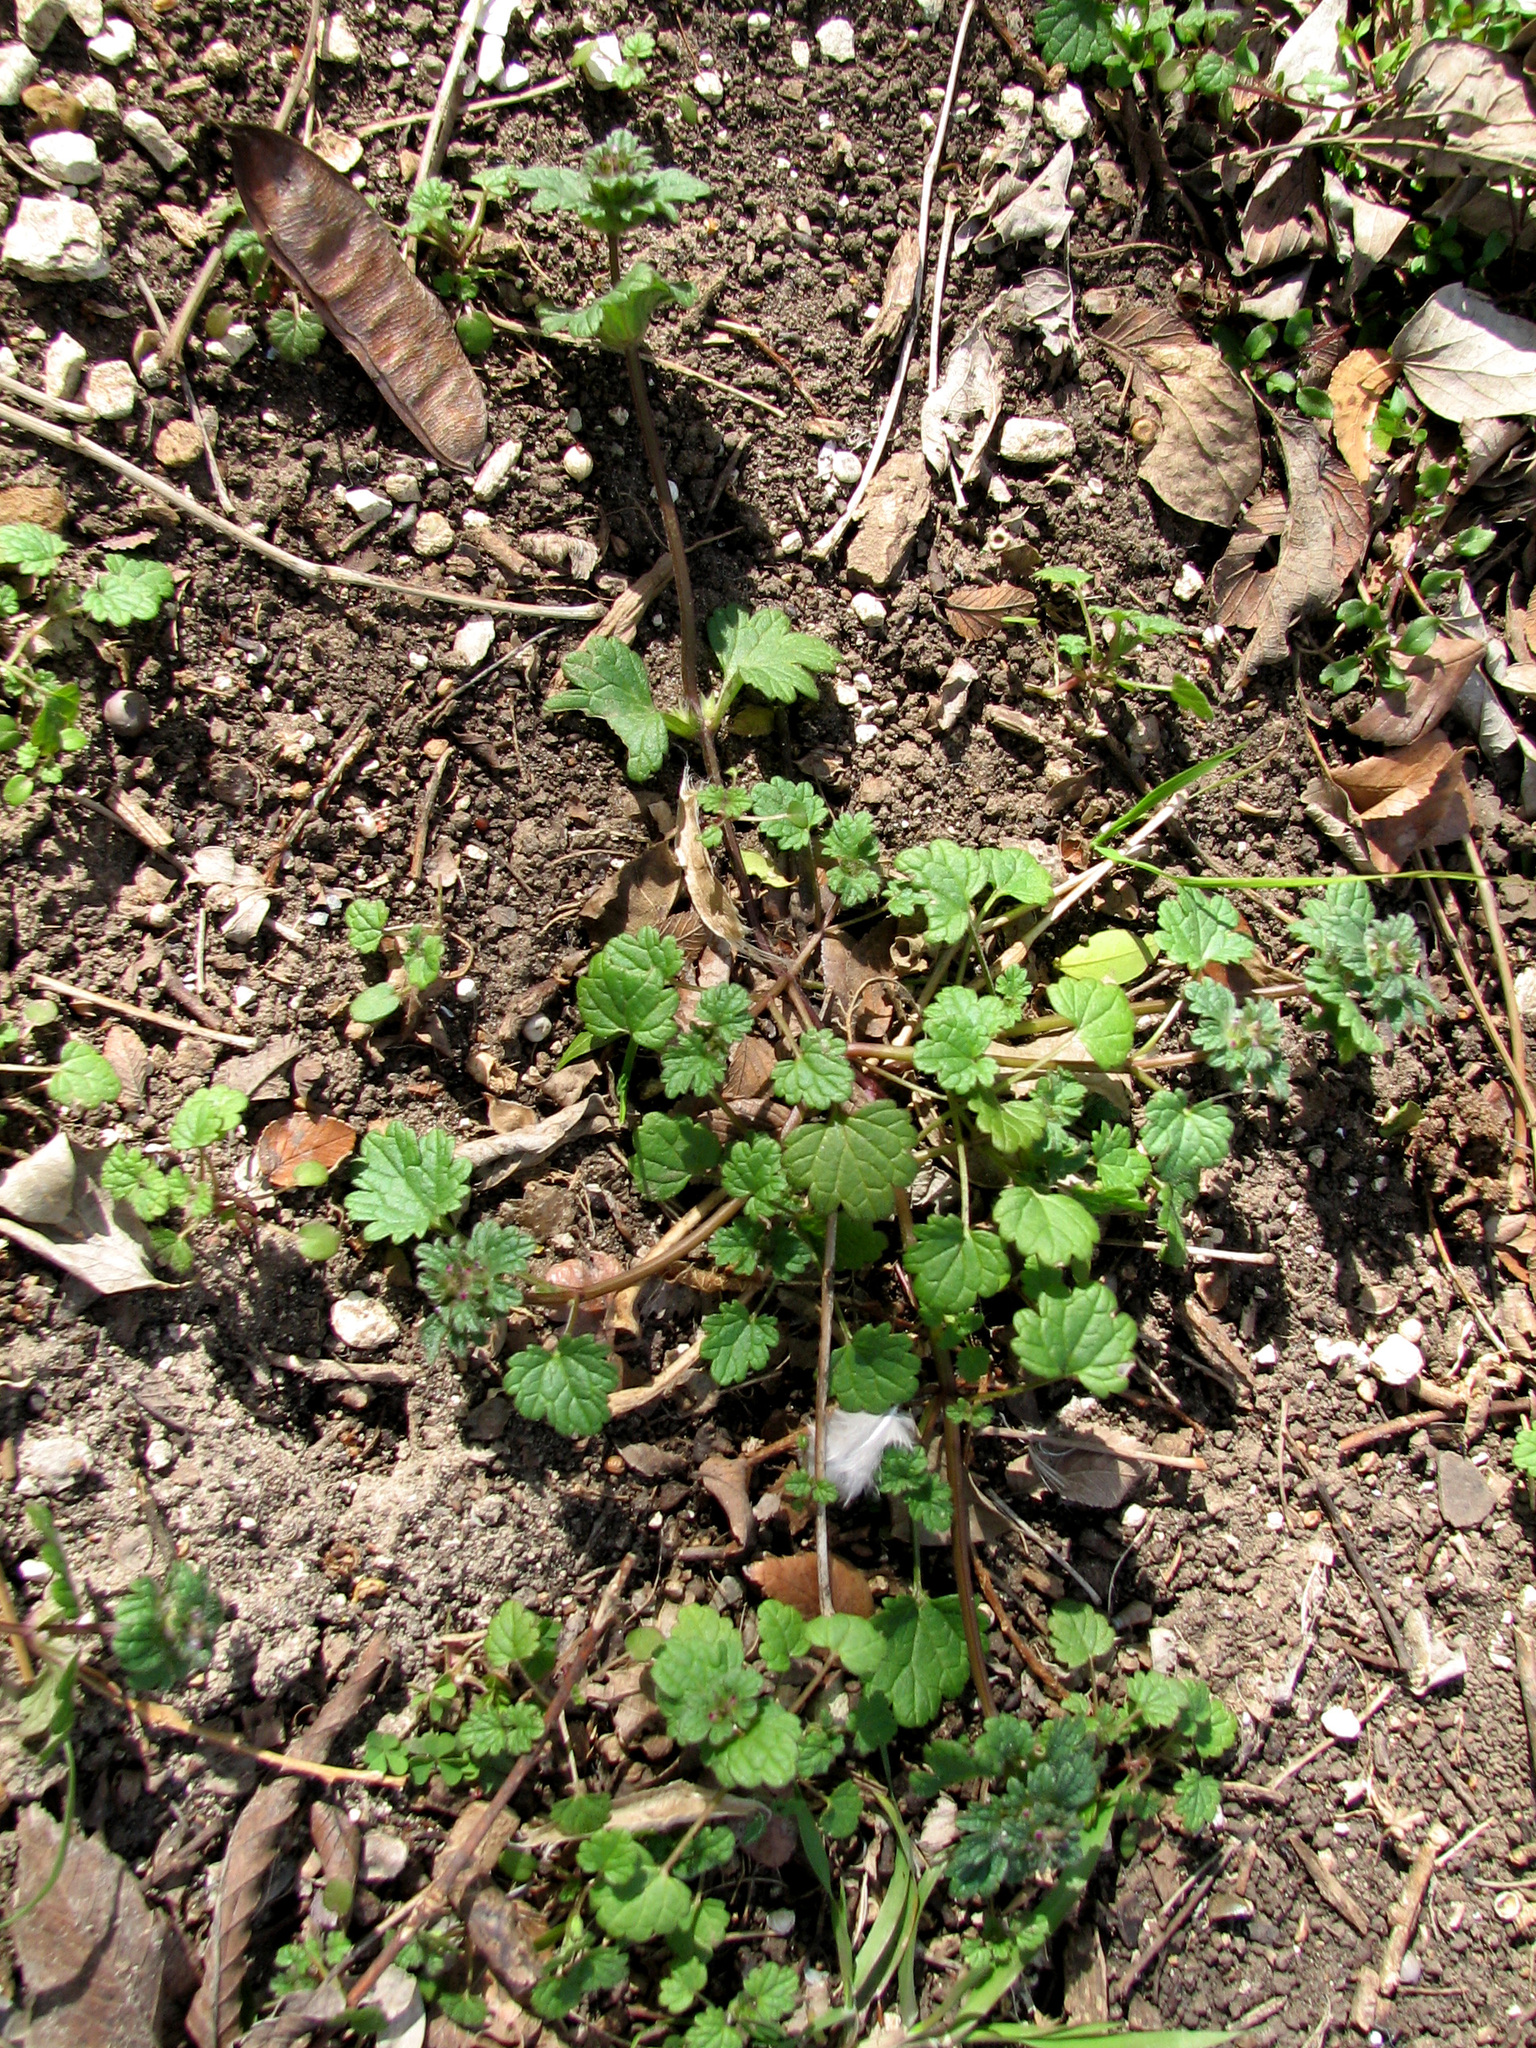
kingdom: Plantae
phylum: Tracheophyta
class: Magnoliopsida
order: Lamiales
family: Lamiaceae
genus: Lamium
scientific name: Lamium amplexicaule
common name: Henbit dead-nettle
